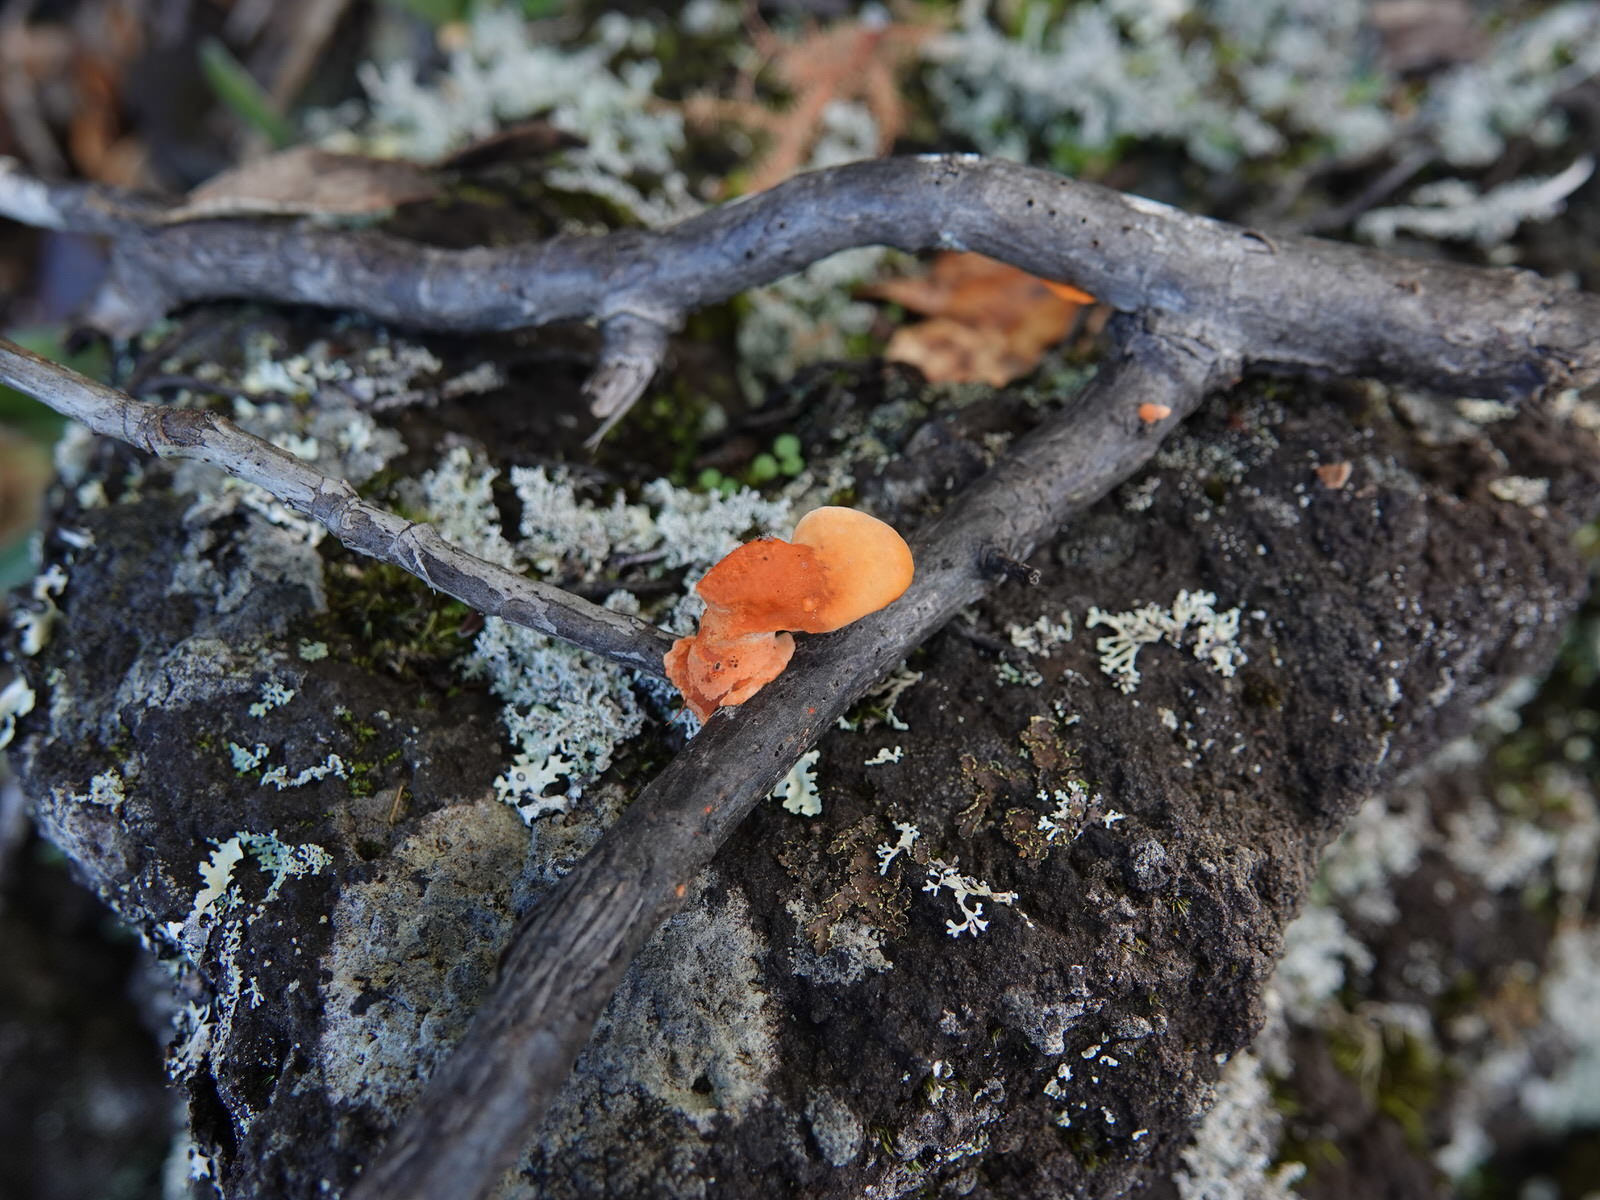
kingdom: Fungi
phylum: Basidiomycota
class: Agaricomycetes
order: Polyporales
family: Polyporaceae
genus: Trametes
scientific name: Trametes coccinea
